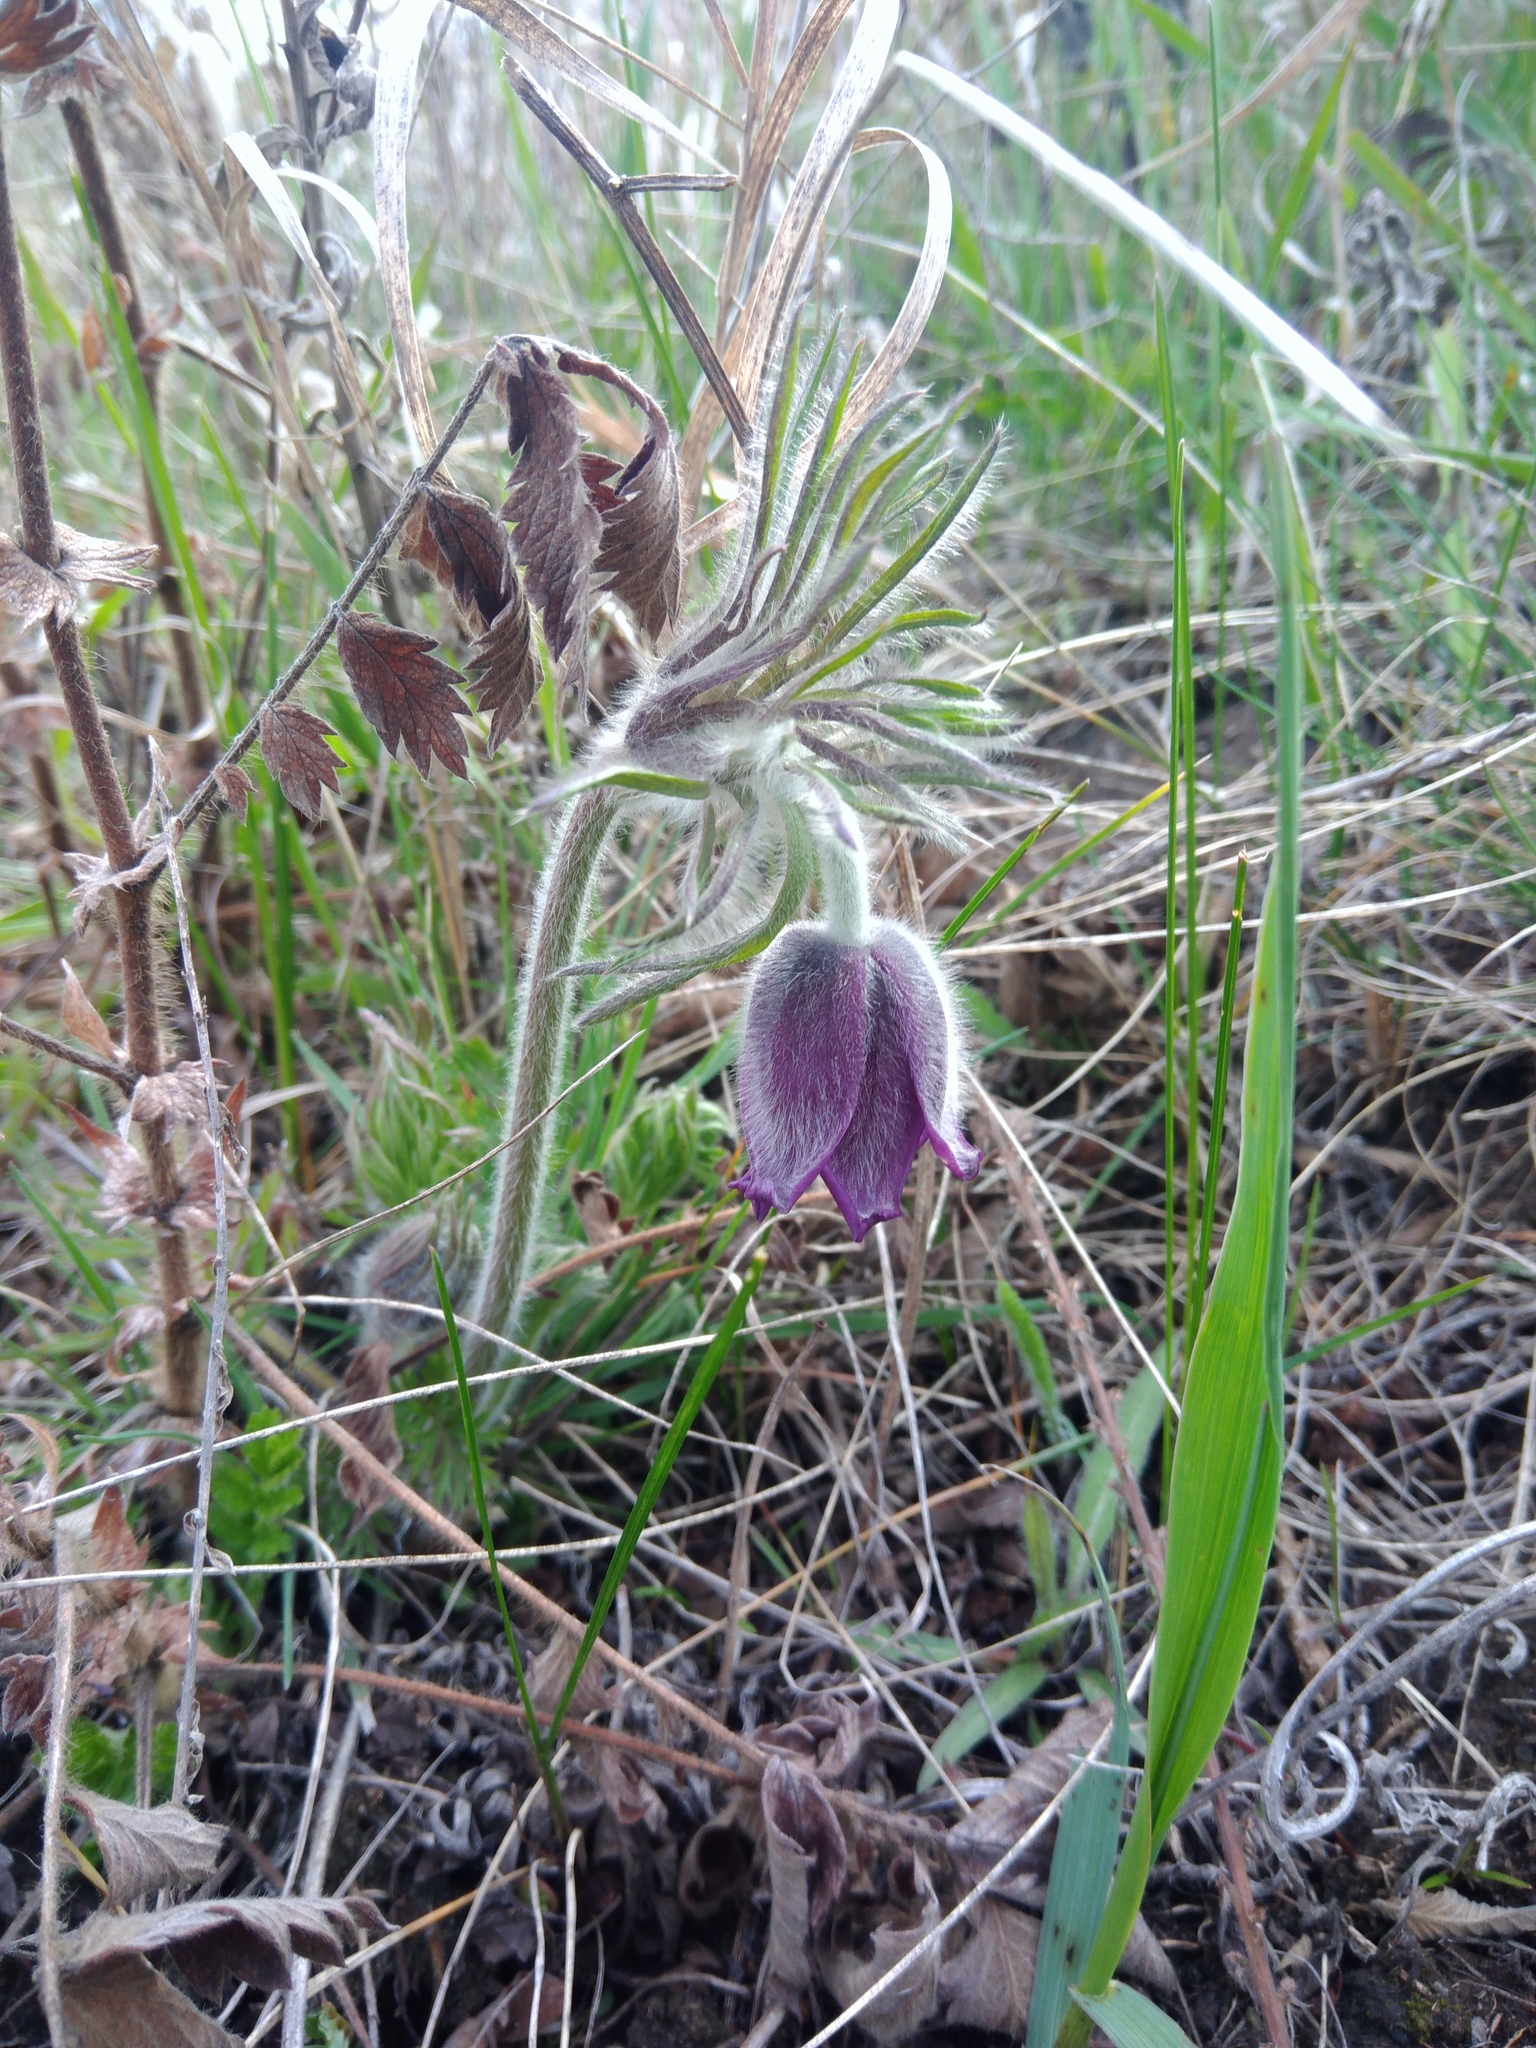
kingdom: Plantae
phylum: Tracheophyta
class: Magnoliopsida
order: Ranunculales
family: Ranunculaceae
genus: Pulsatilla
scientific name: Pulsatilla pratensis
